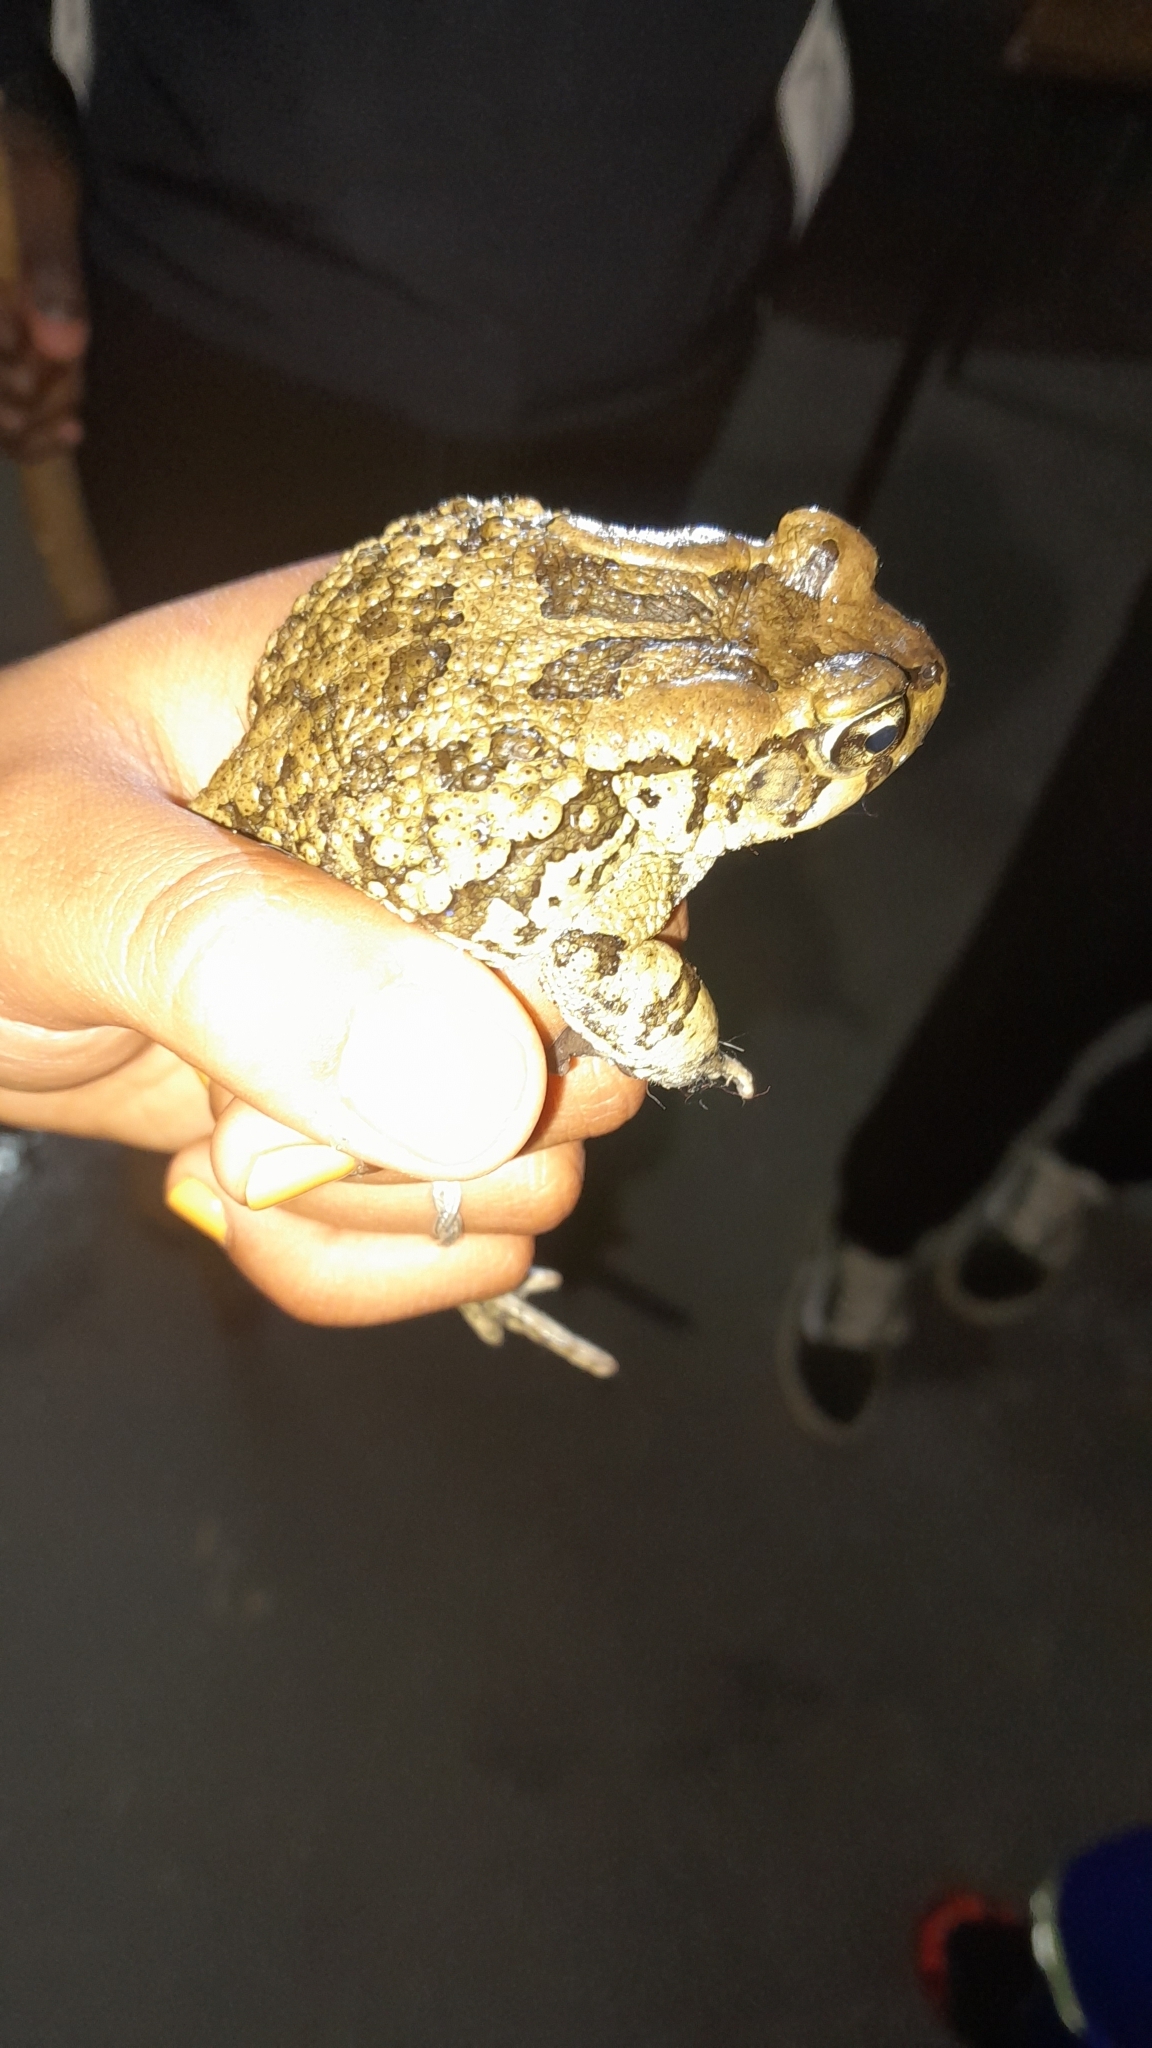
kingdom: Animalia
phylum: Chordata
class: Amphibia
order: Anura
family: Bufonidae
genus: Sclerophrys
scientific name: Sclerophrys capensis
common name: Ranger’s toad
